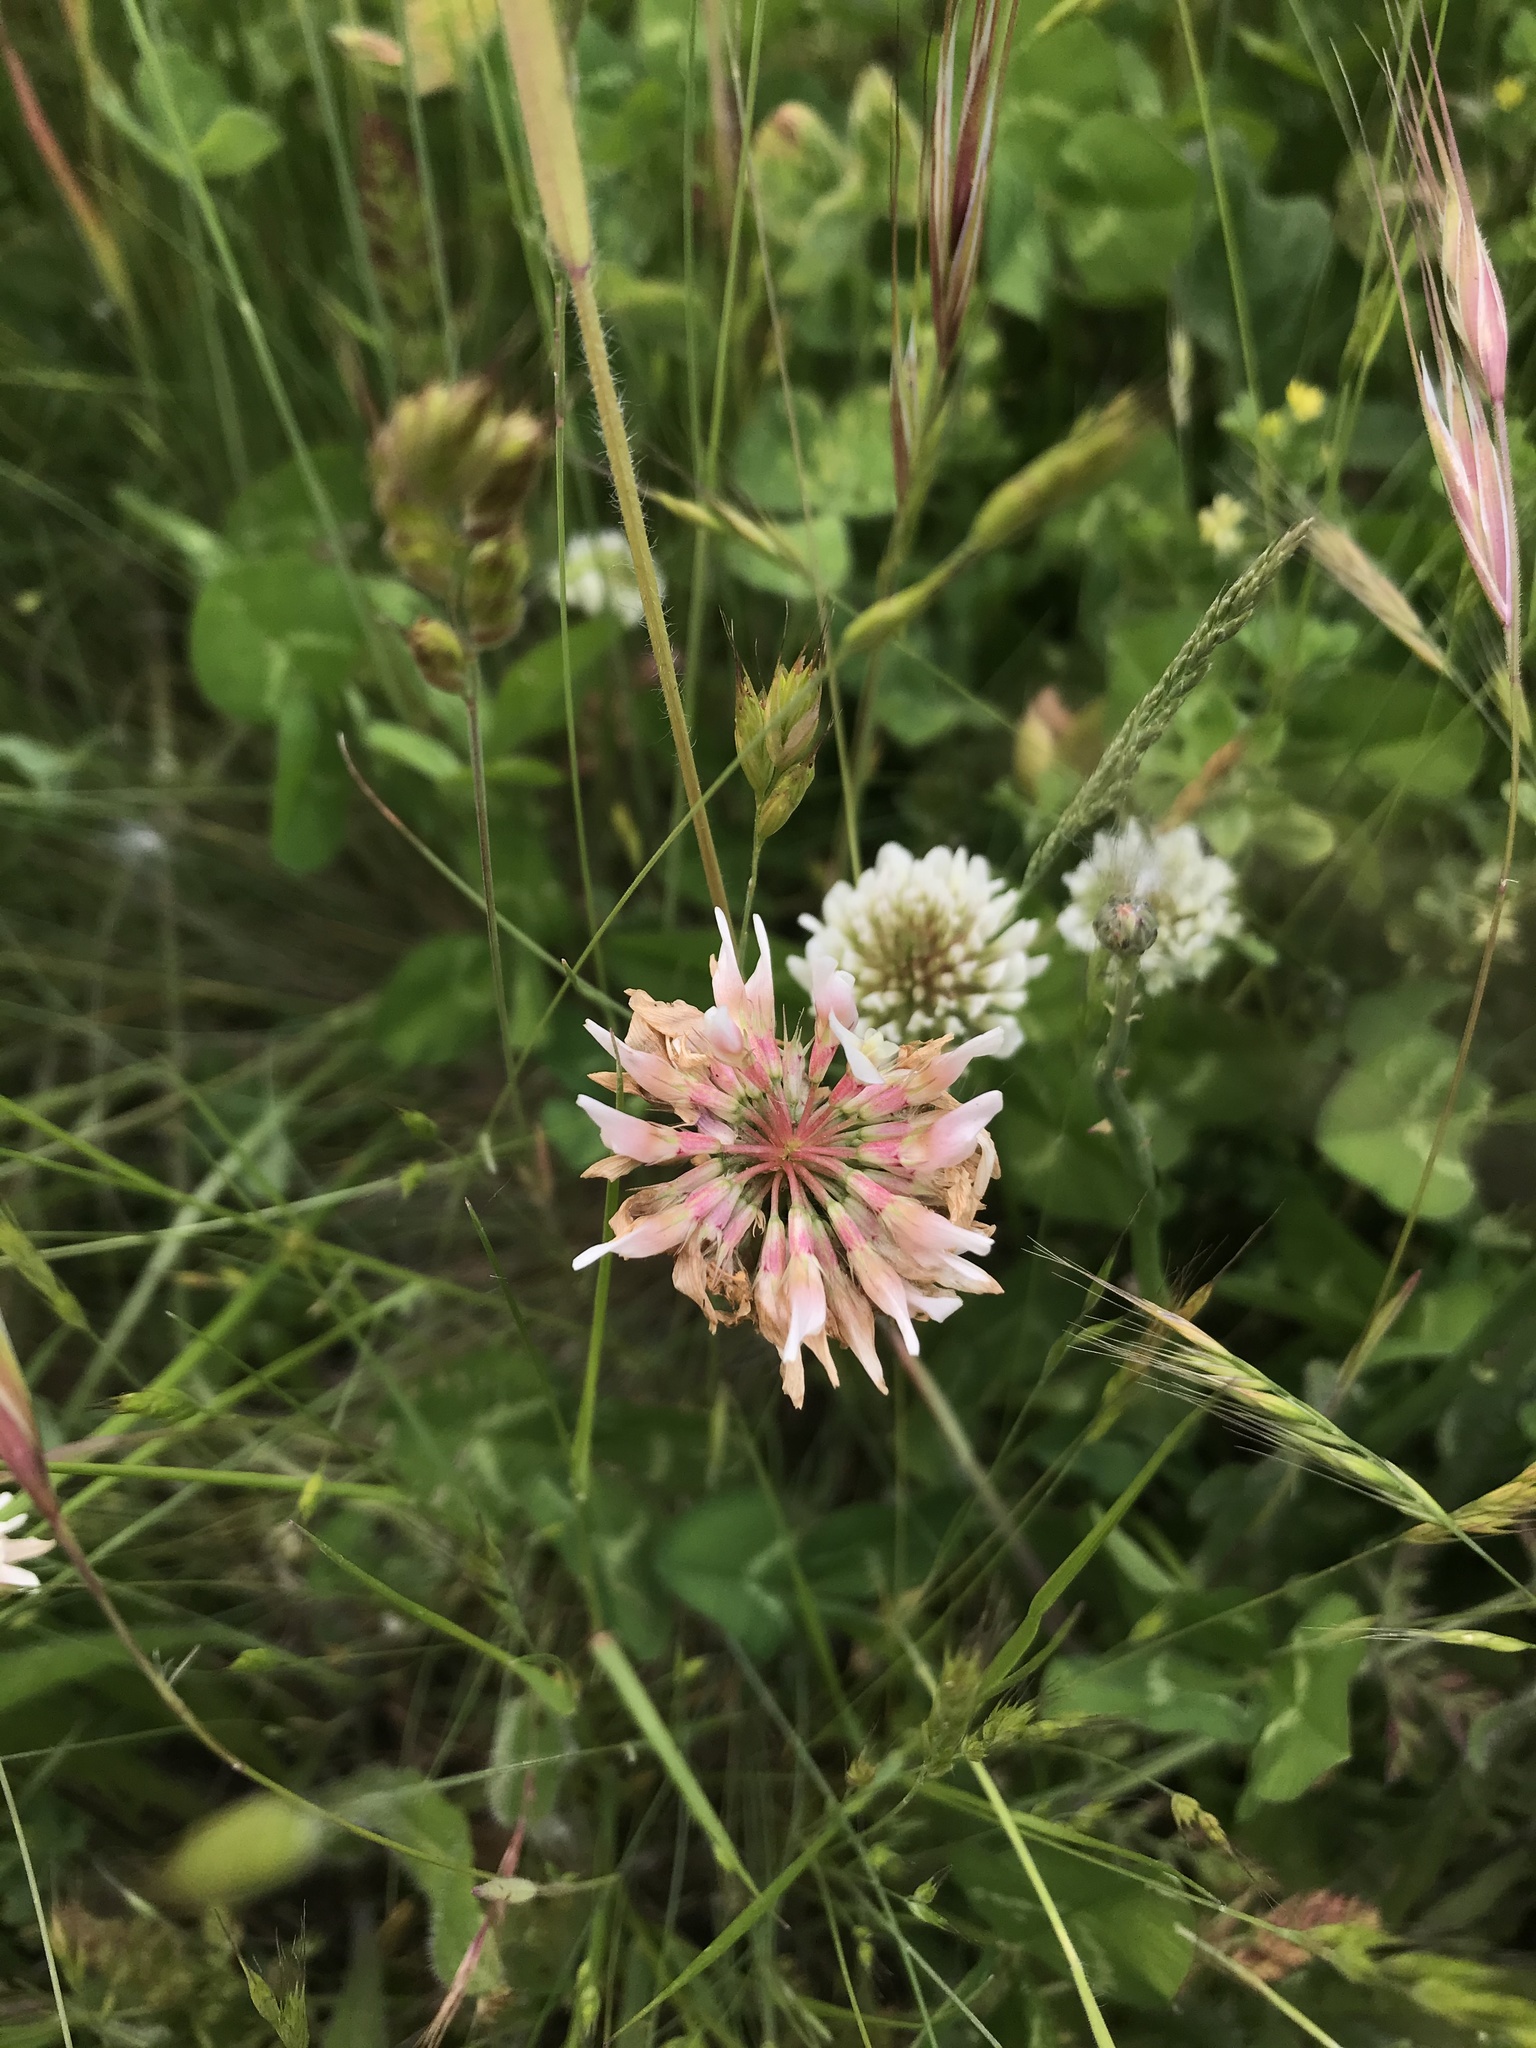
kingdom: Plantae
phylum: Tracheophyta
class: Magnoliopsida
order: Fabales
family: Fabaceae
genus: Trifolium
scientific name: Trifolium repens
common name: White clover
